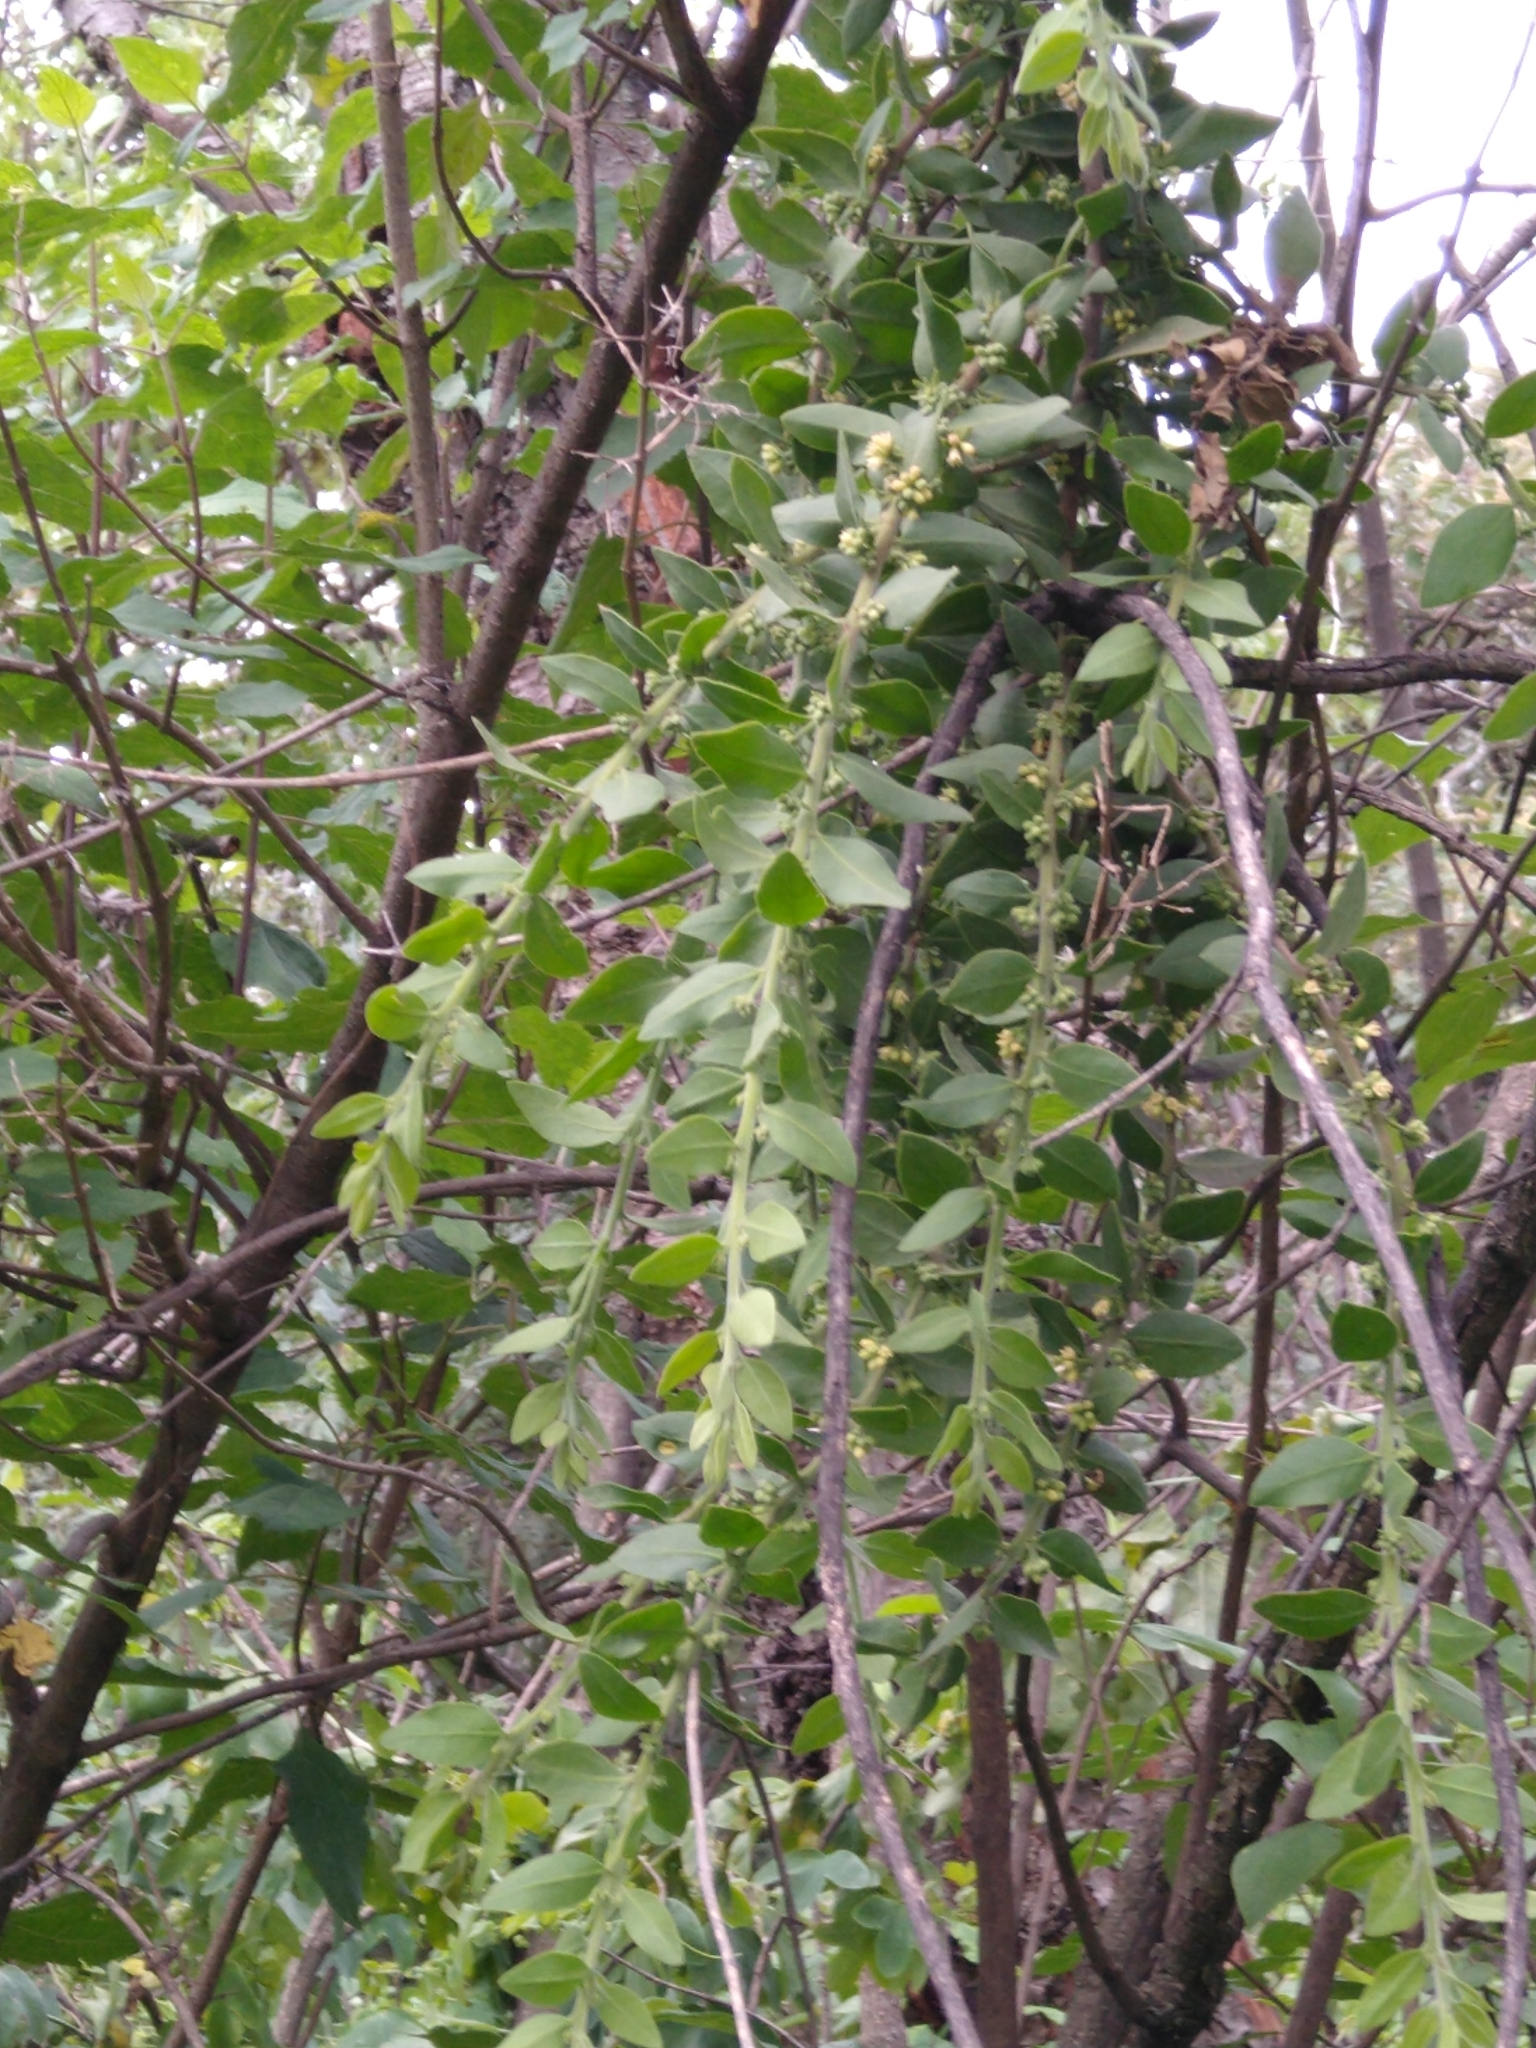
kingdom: Plantae
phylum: Tracheophyta
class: Magnoliopsida
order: Santalales
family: Loranthaceae
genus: Cladocolea
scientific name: Cladocolea loniceroides
